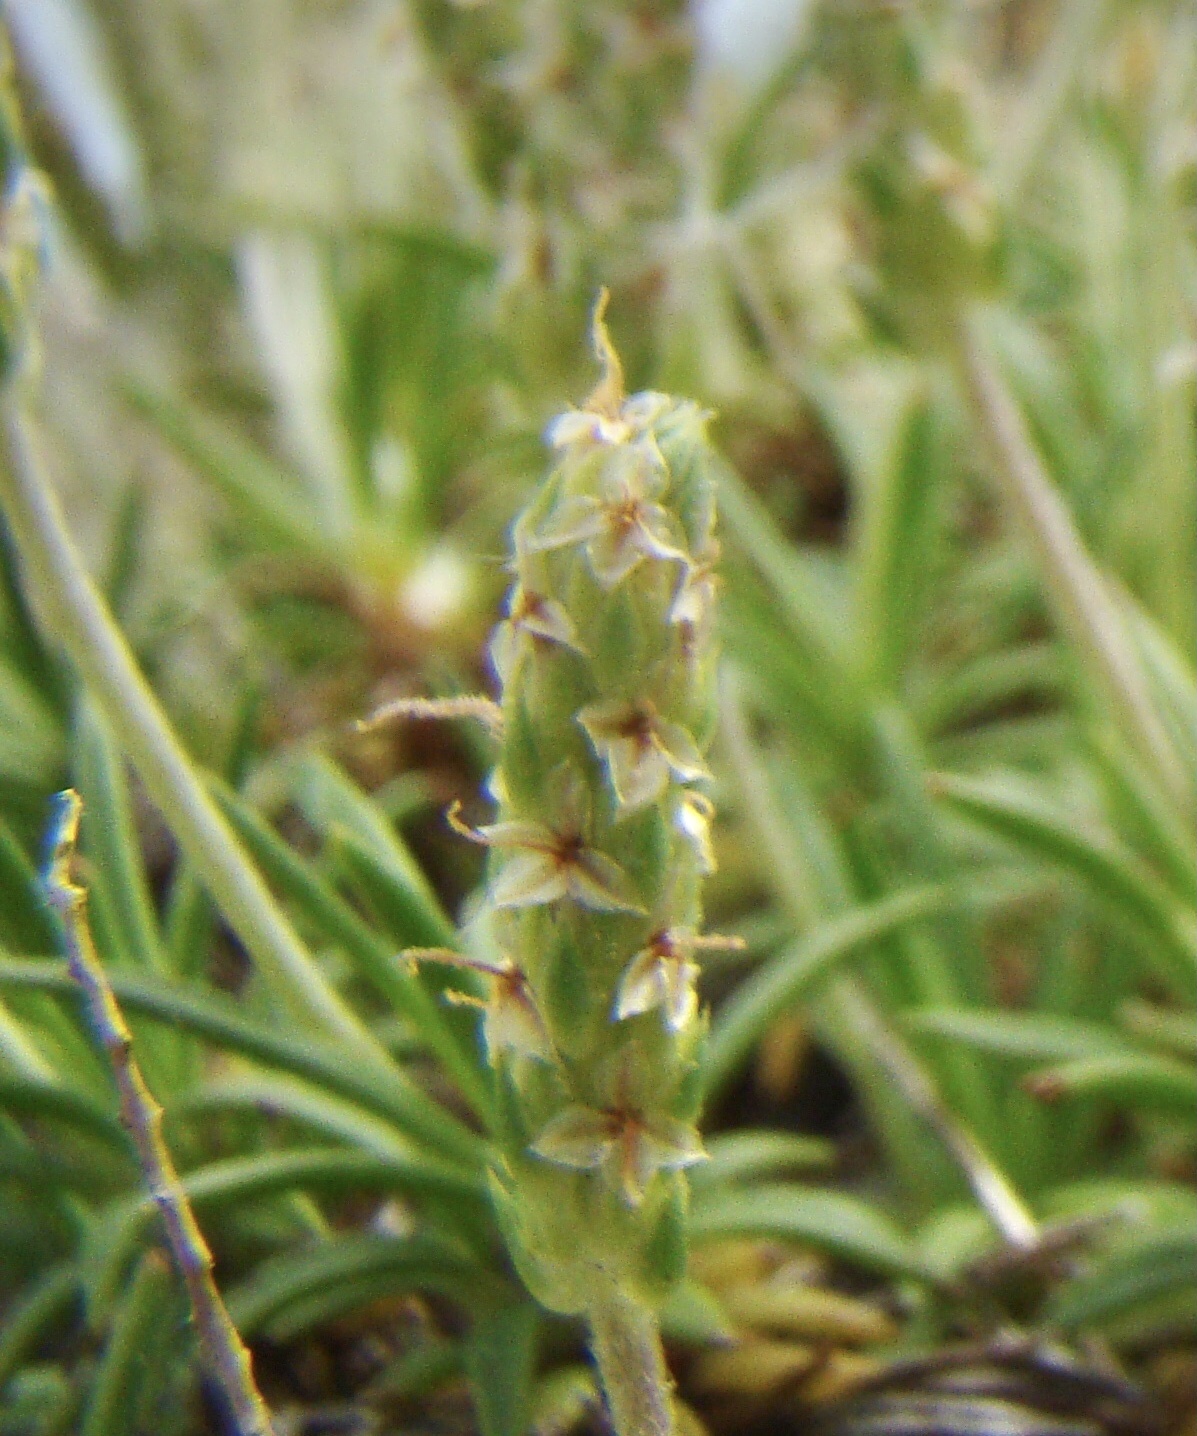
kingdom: Plantae
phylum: Tracheophyta
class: Magnoliopsida
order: Lamiales
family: Plantaginaceae
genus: Plantago
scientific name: Plantago subulata
